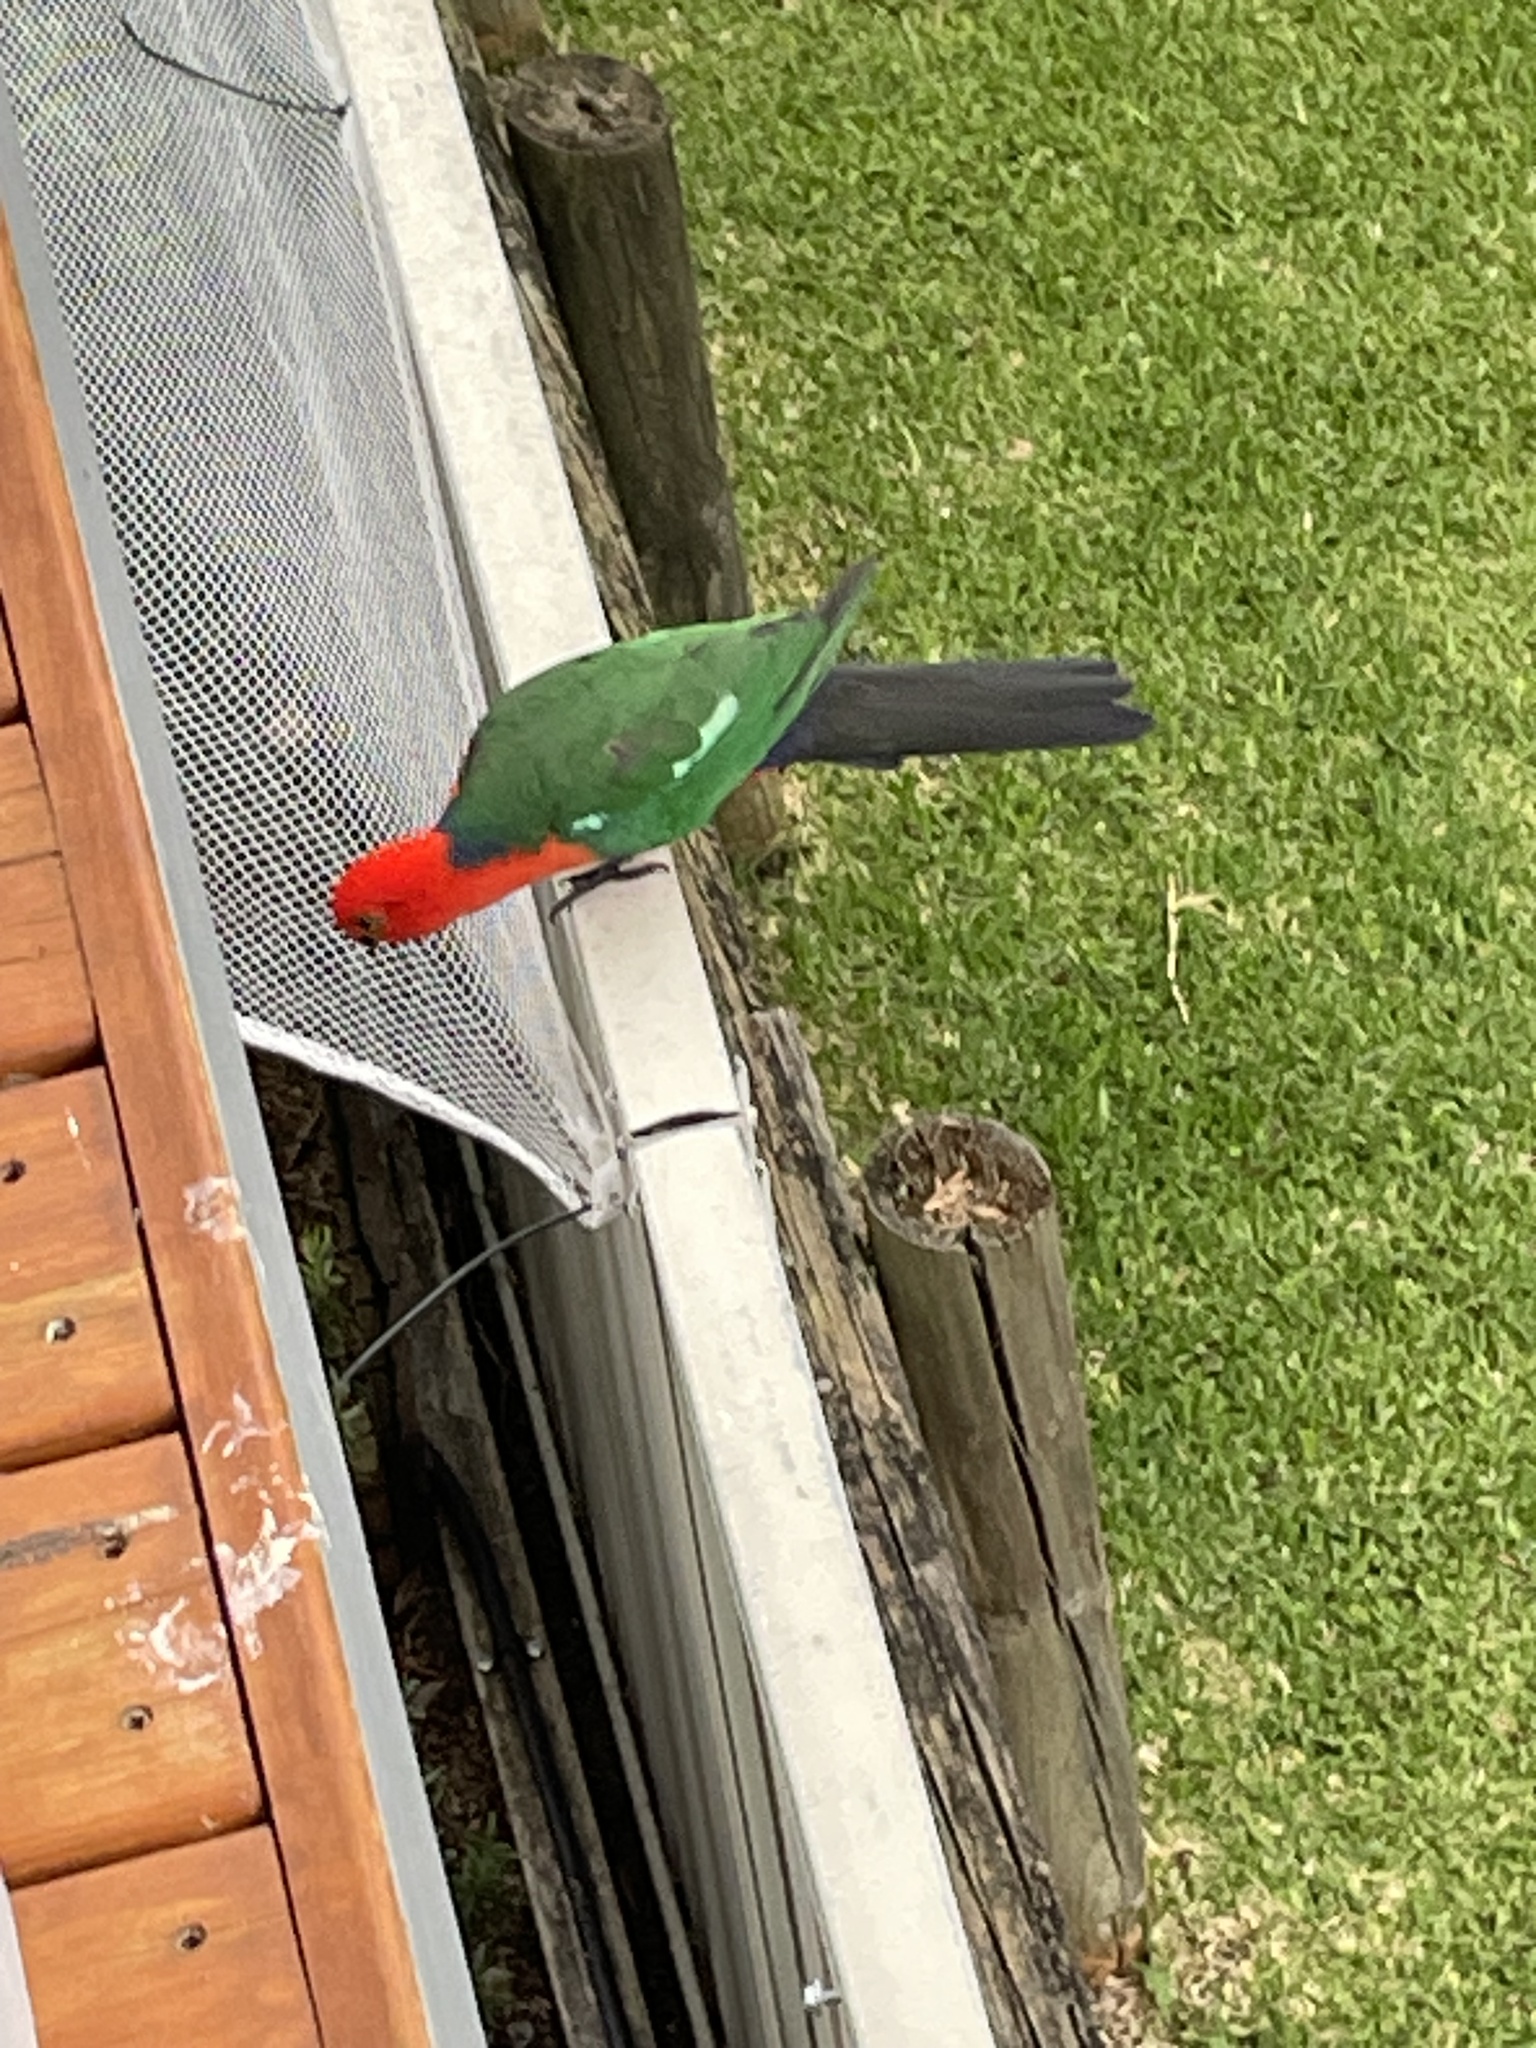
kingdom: Animalia
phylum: Chordata
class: Aves
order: Psittaciformes
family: Psittacidae
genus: Alisterus
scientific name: Alisterus scapularis
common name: Australian king parrot
